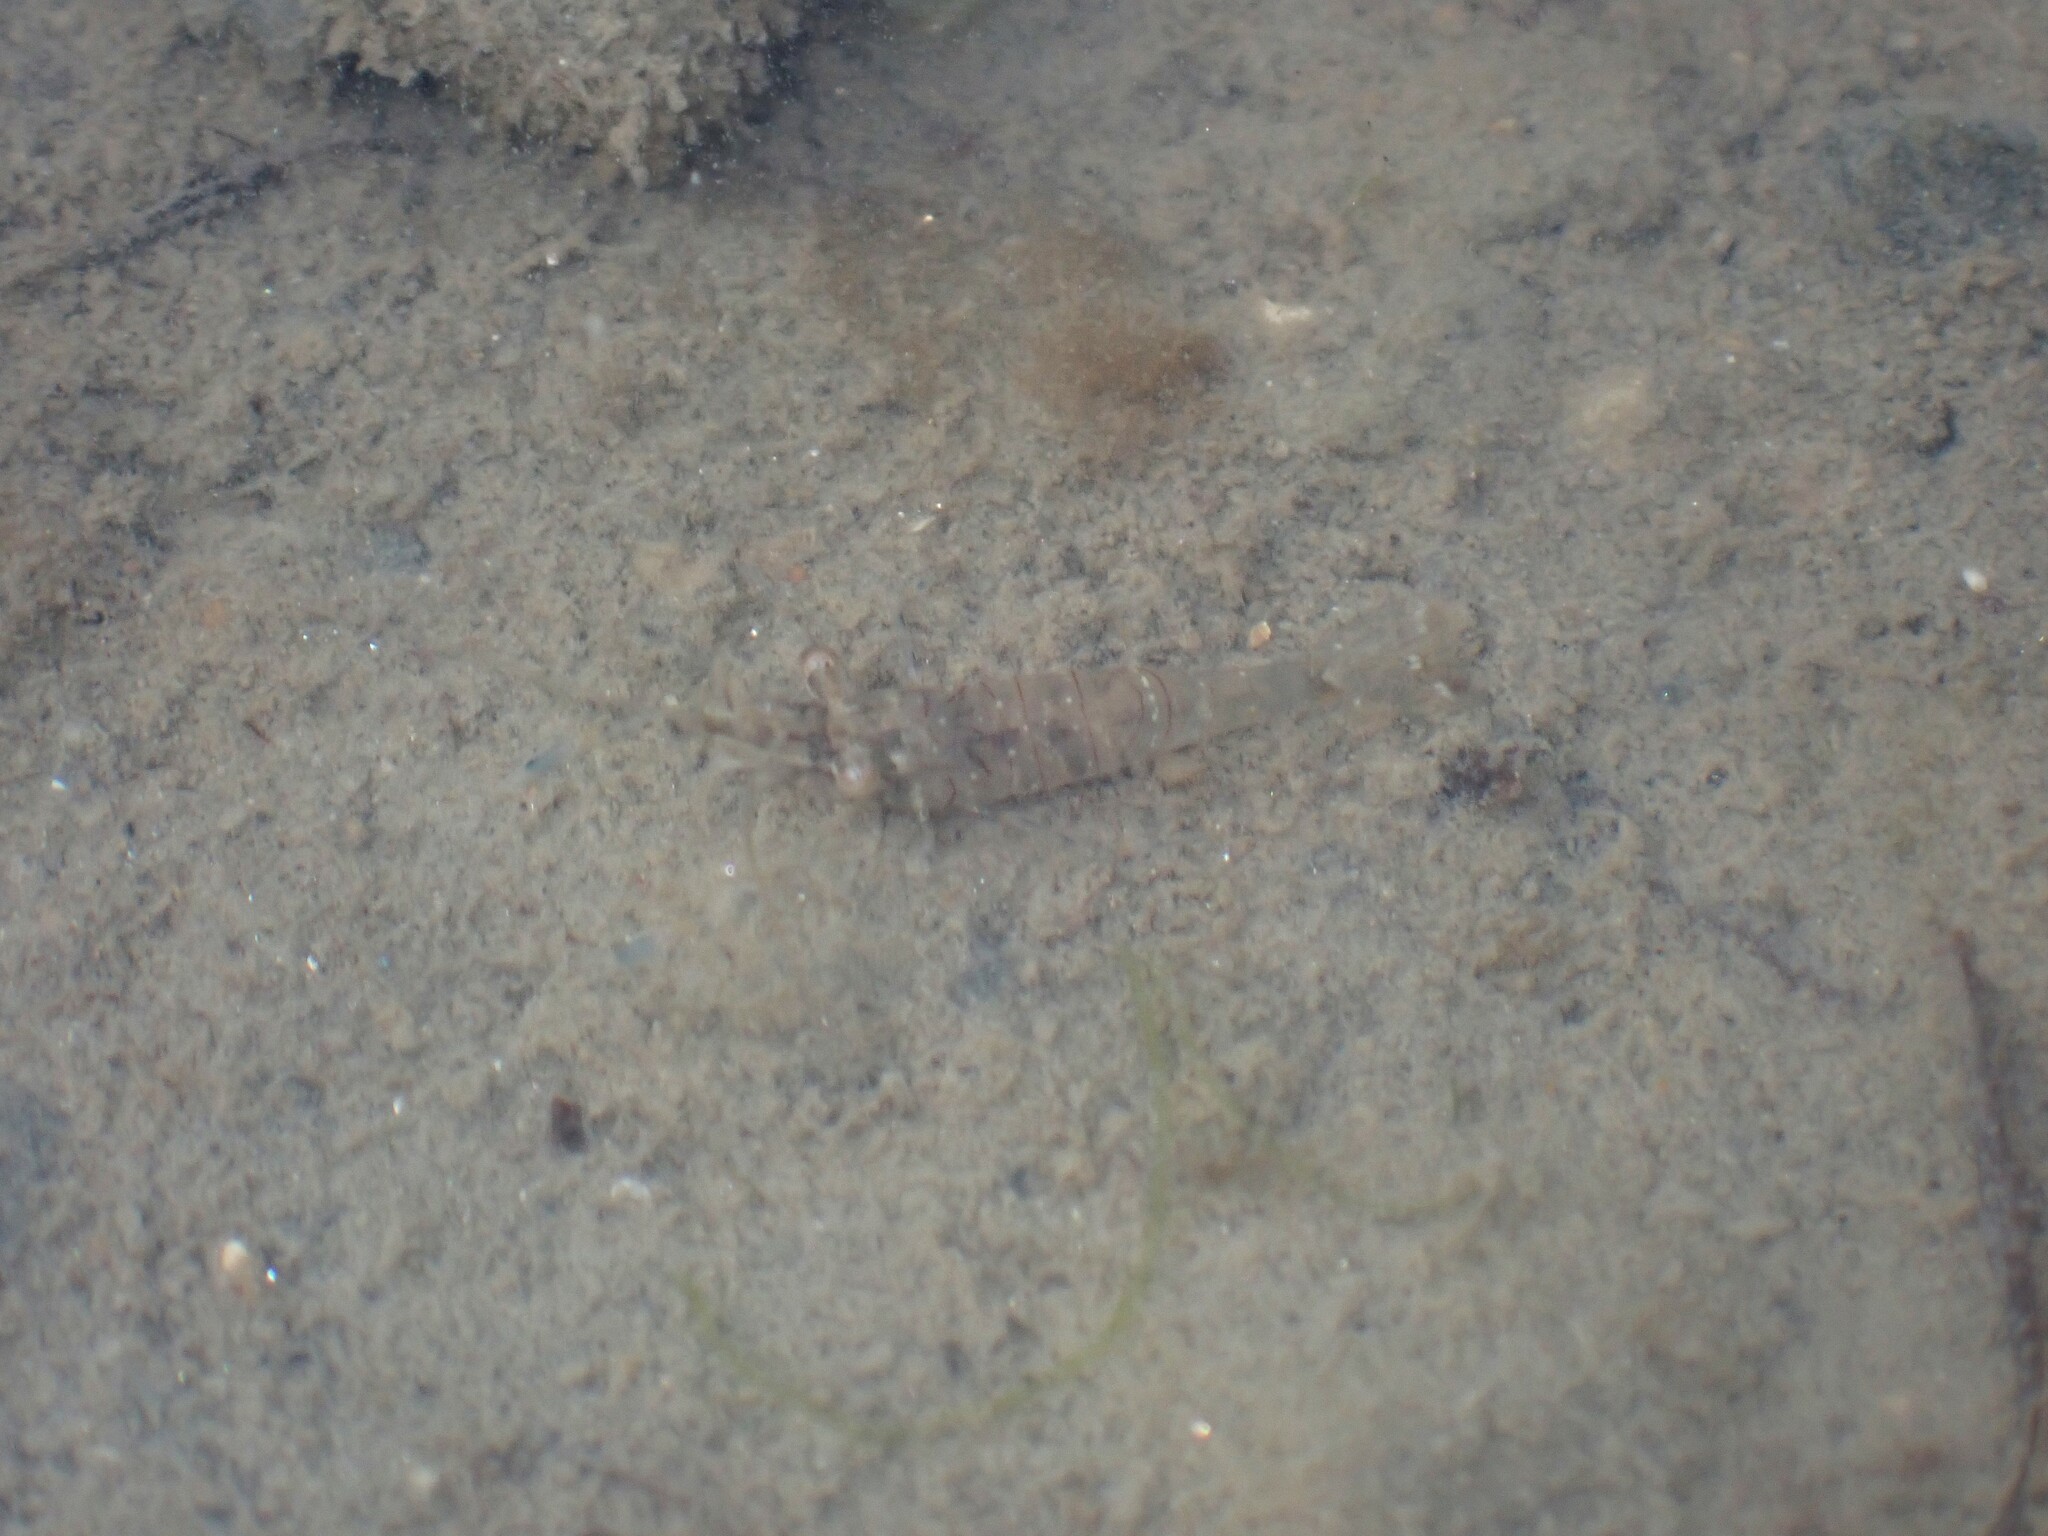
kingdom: Animalia
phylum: Arthropoda
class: Malacostraca
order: Decapoda
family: Palaemonidae
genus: Palaemon
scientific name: Palaemon elegans
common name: Grass prawm
